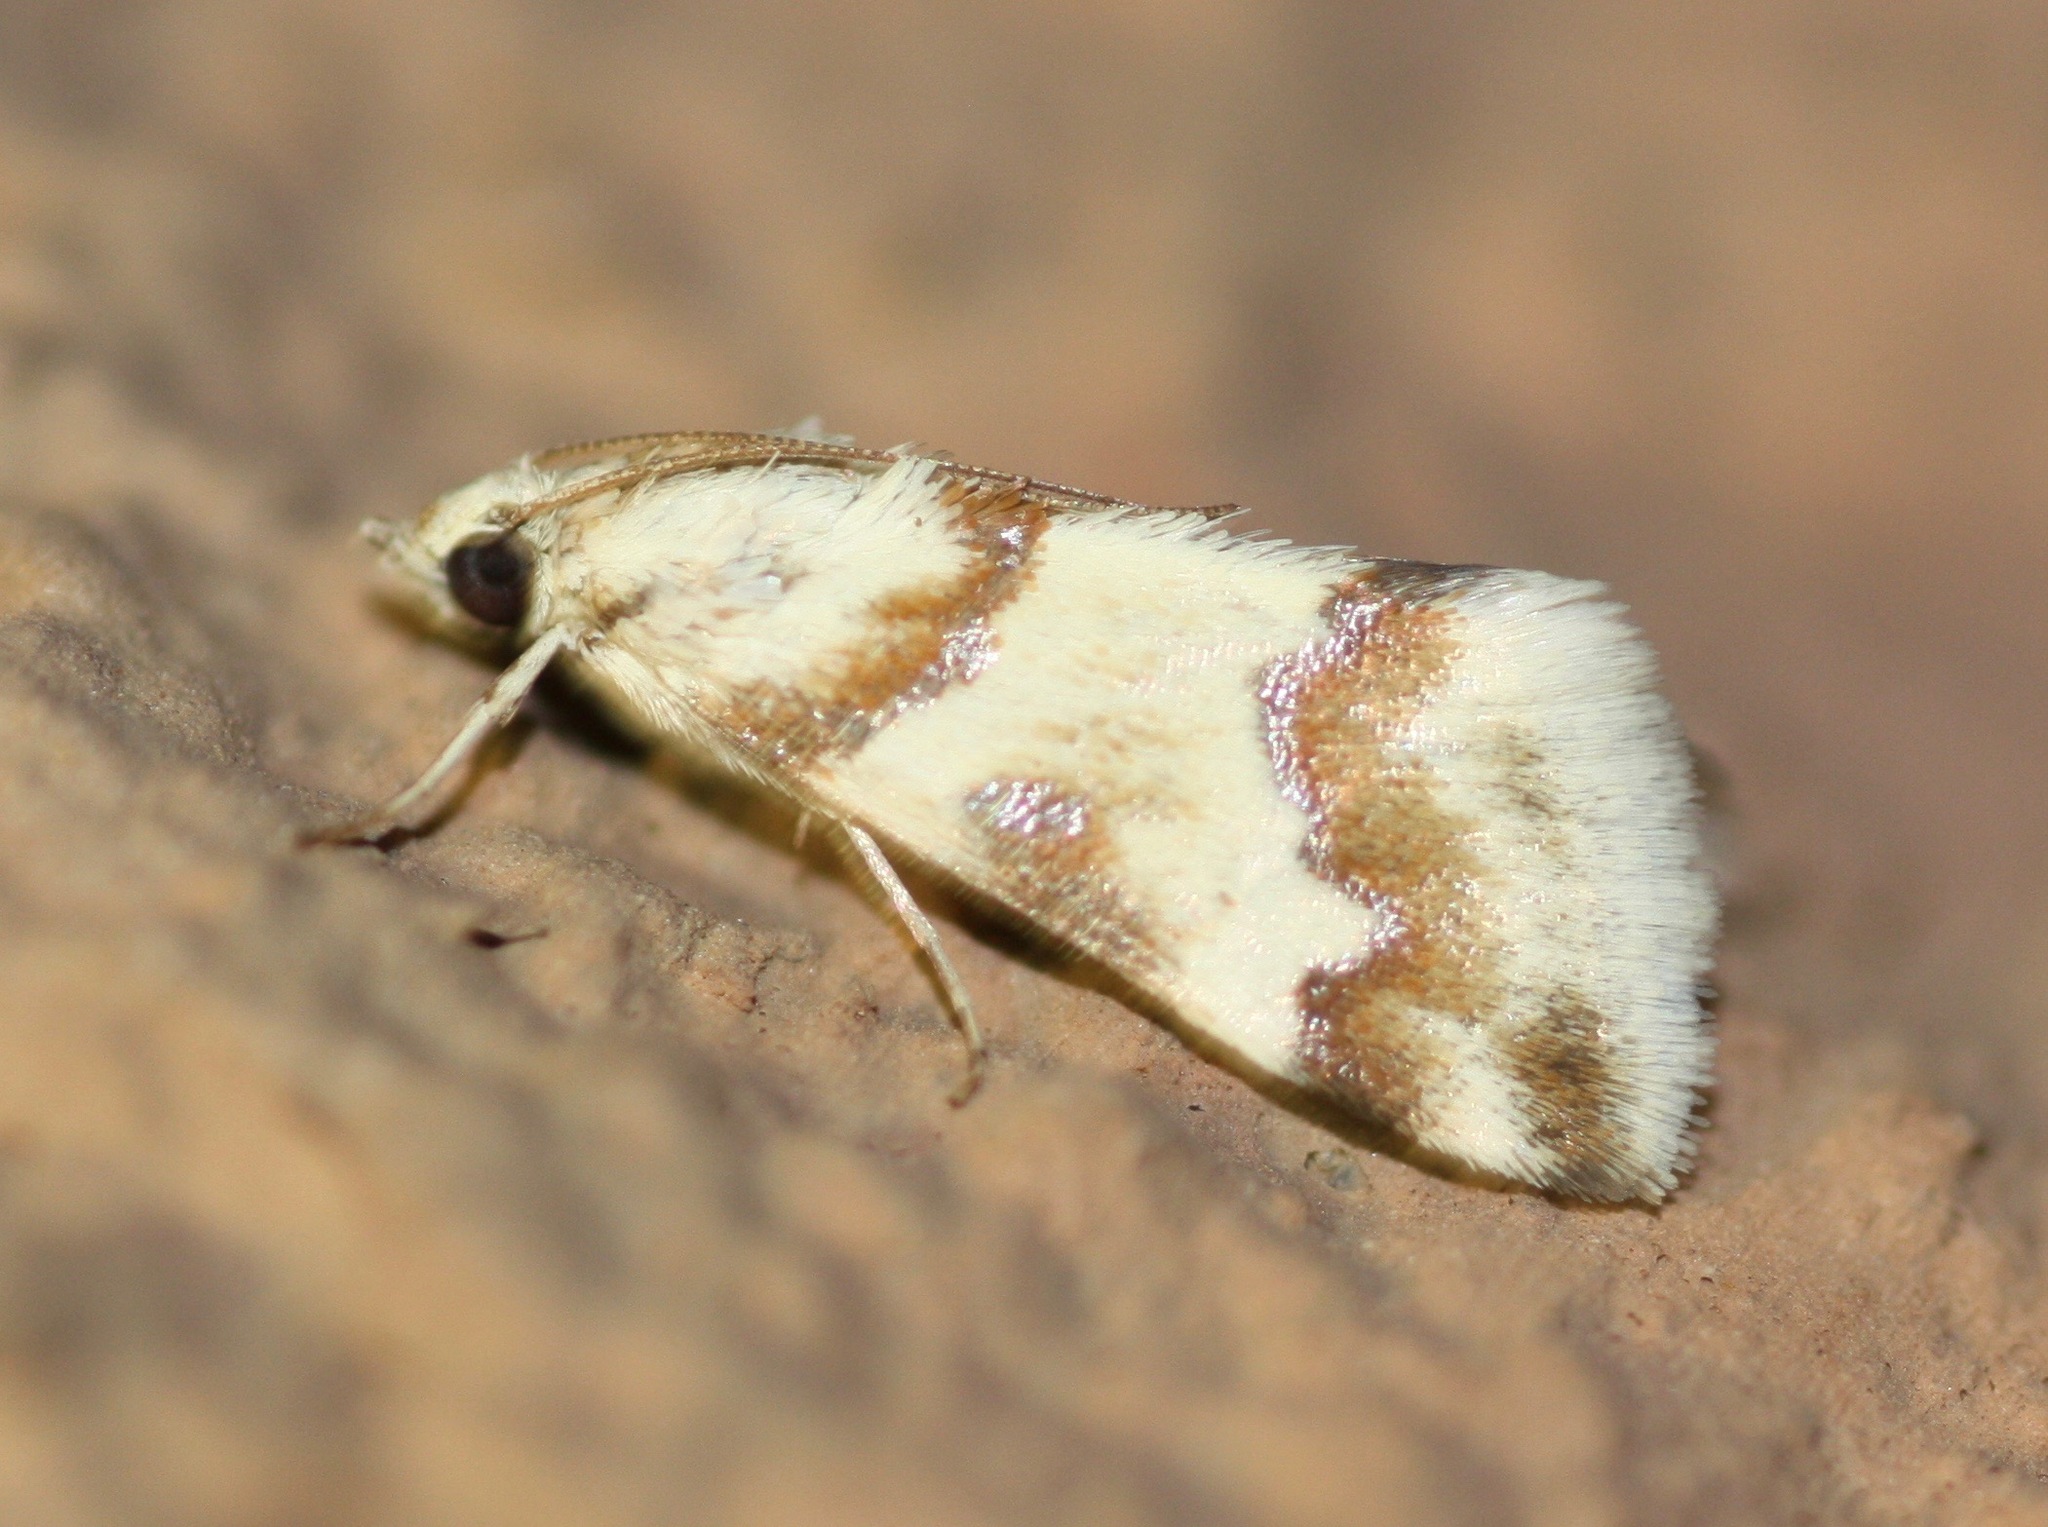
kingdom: Animalia
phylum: Arthropoda
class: Insecta
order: Lepidoptera
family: Crambidae
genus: Noctuelia
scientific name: Noctuelia Mimoschinia rufofascialis
